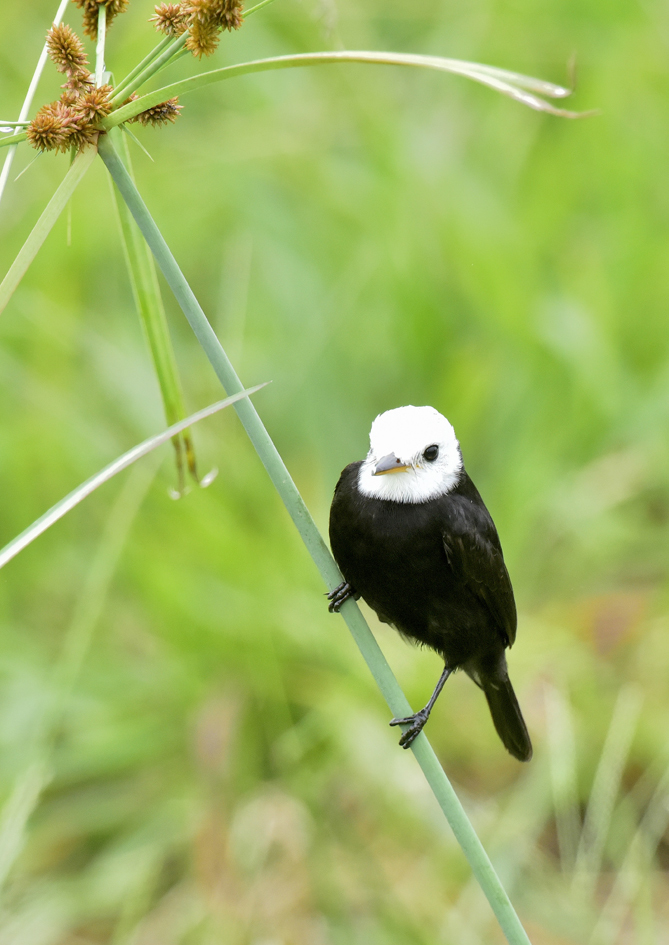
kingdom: Animalia
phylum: Chordata
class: Aves
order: Passeriformes
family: Tyrannidae
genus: Arundinicola
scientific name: Arundinicola leucocephala
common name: White-headed marsh tyrant
